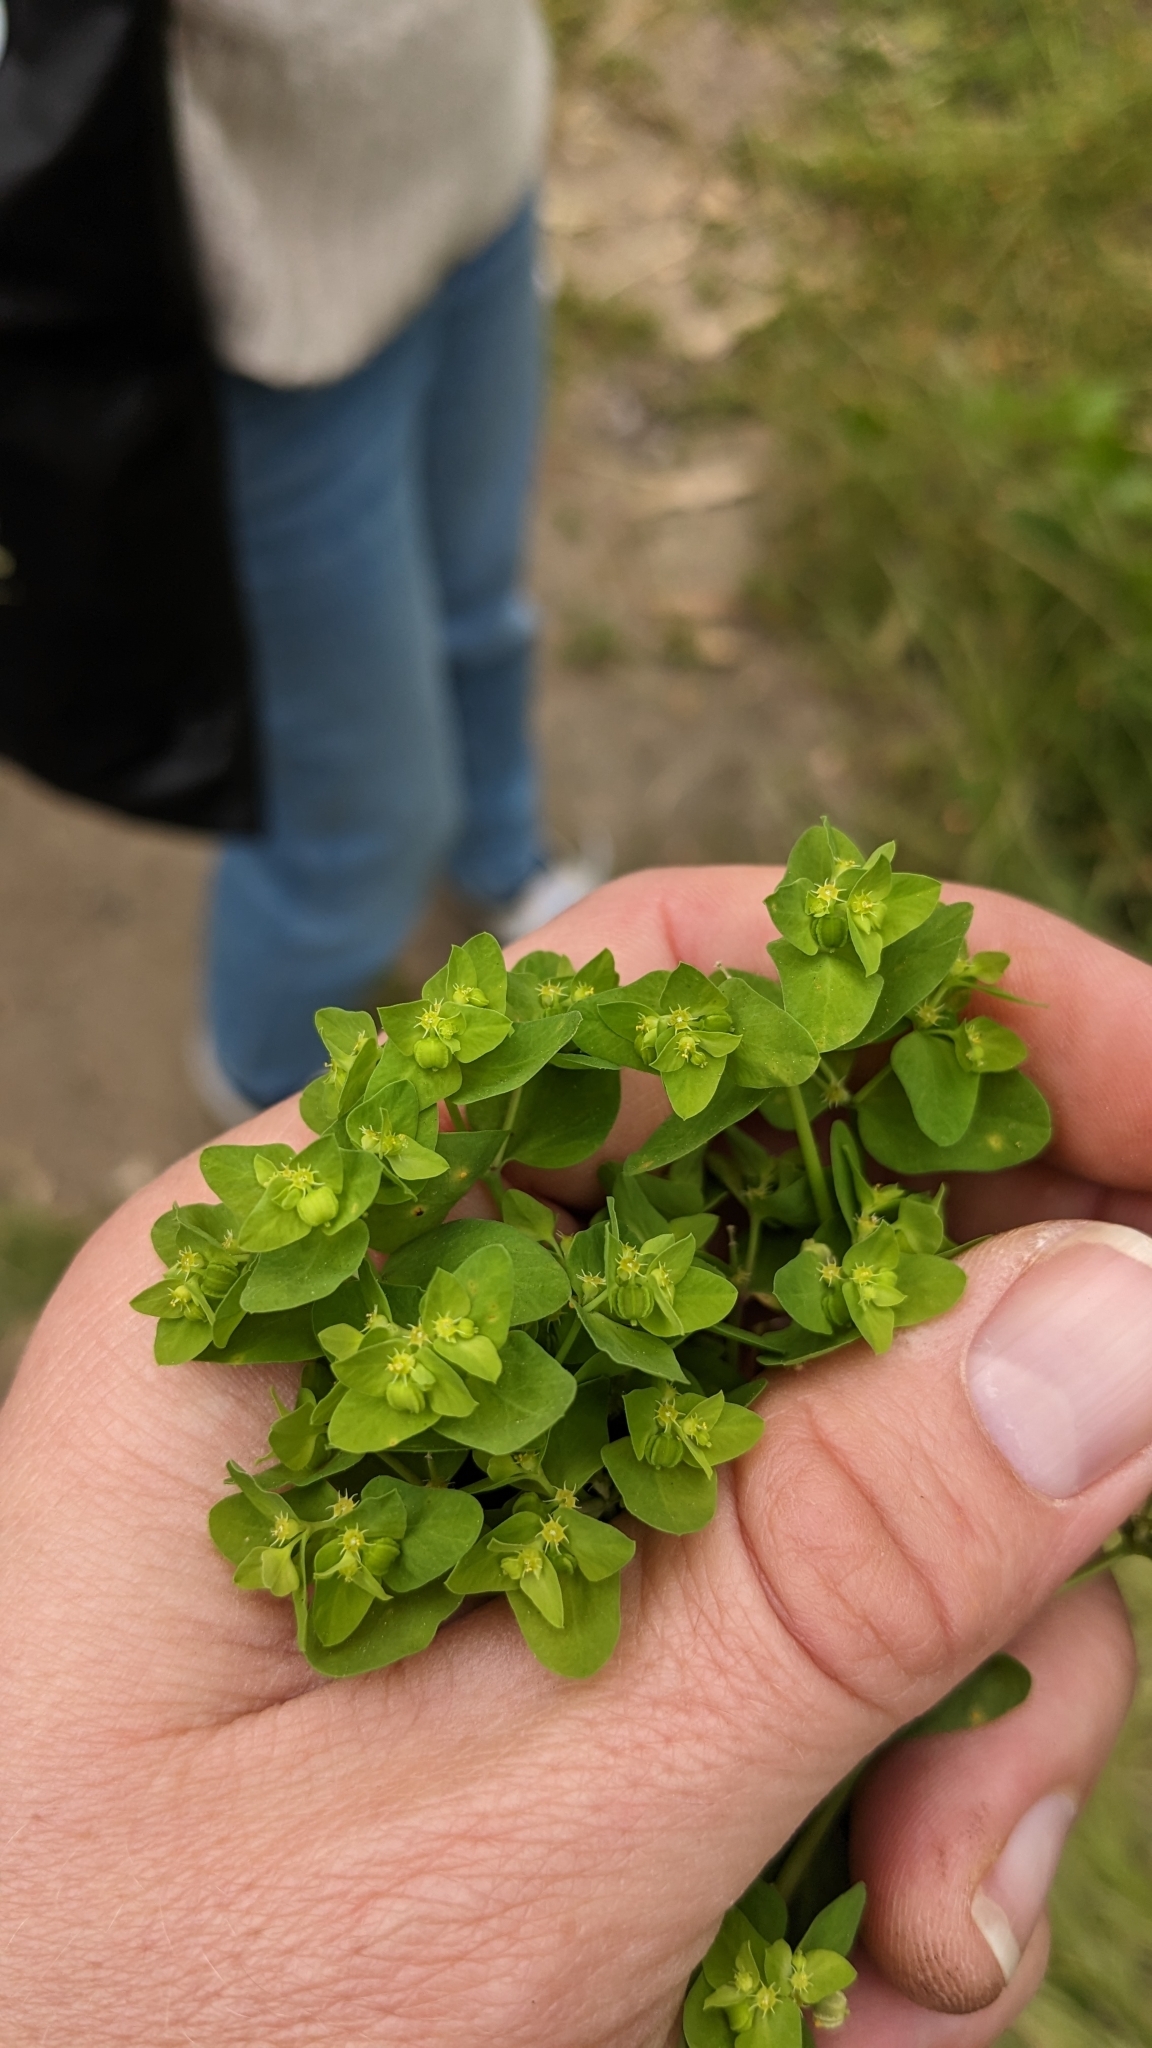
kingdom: Plantae
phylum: Tracheophyta
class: Magnoliopsida
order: Malpighiales
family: Euphorbiaceae
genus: Euphorbia
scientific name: Euphorbia peplus
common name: Petty spurge
